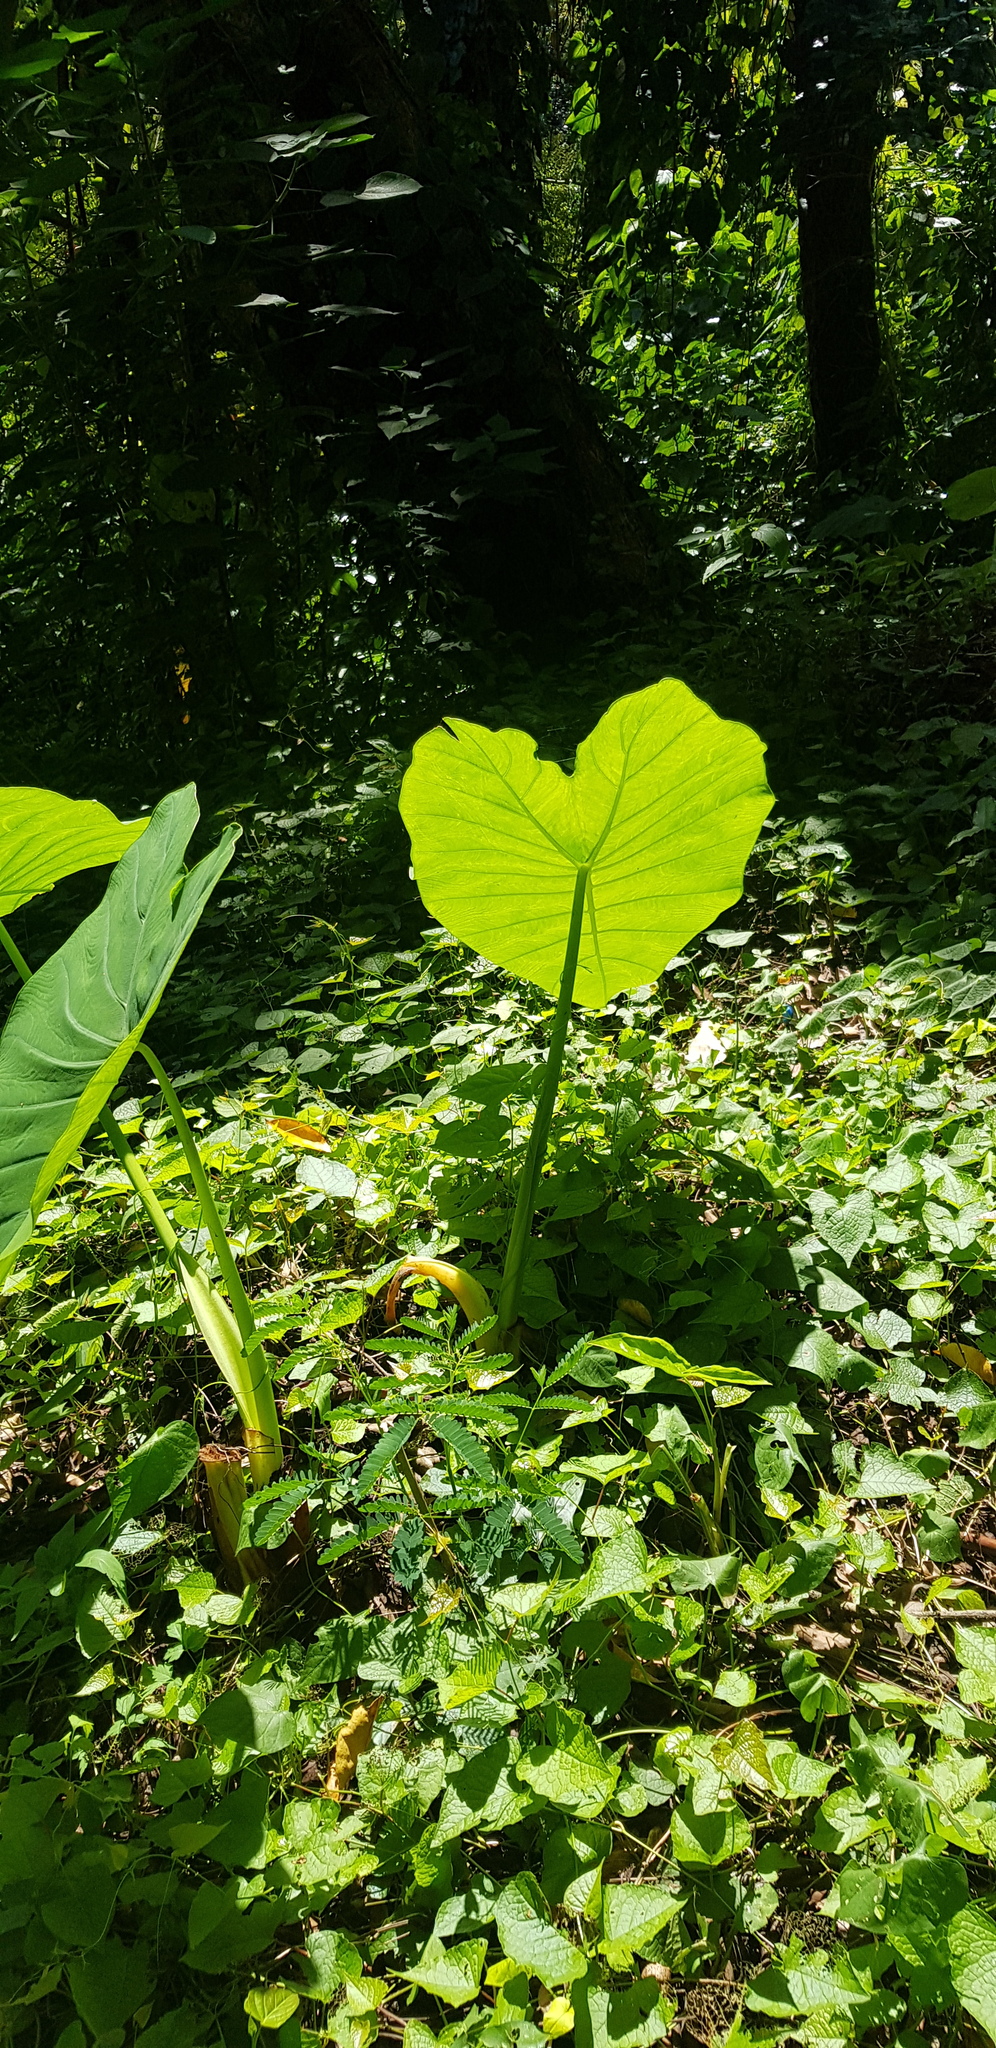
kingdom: Plantae
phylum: Tracheophyta
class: Liliopsida
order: Alismatales
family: Araceae
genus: Xanthosoma
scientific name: Xanthosoma robustum
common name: Capote
